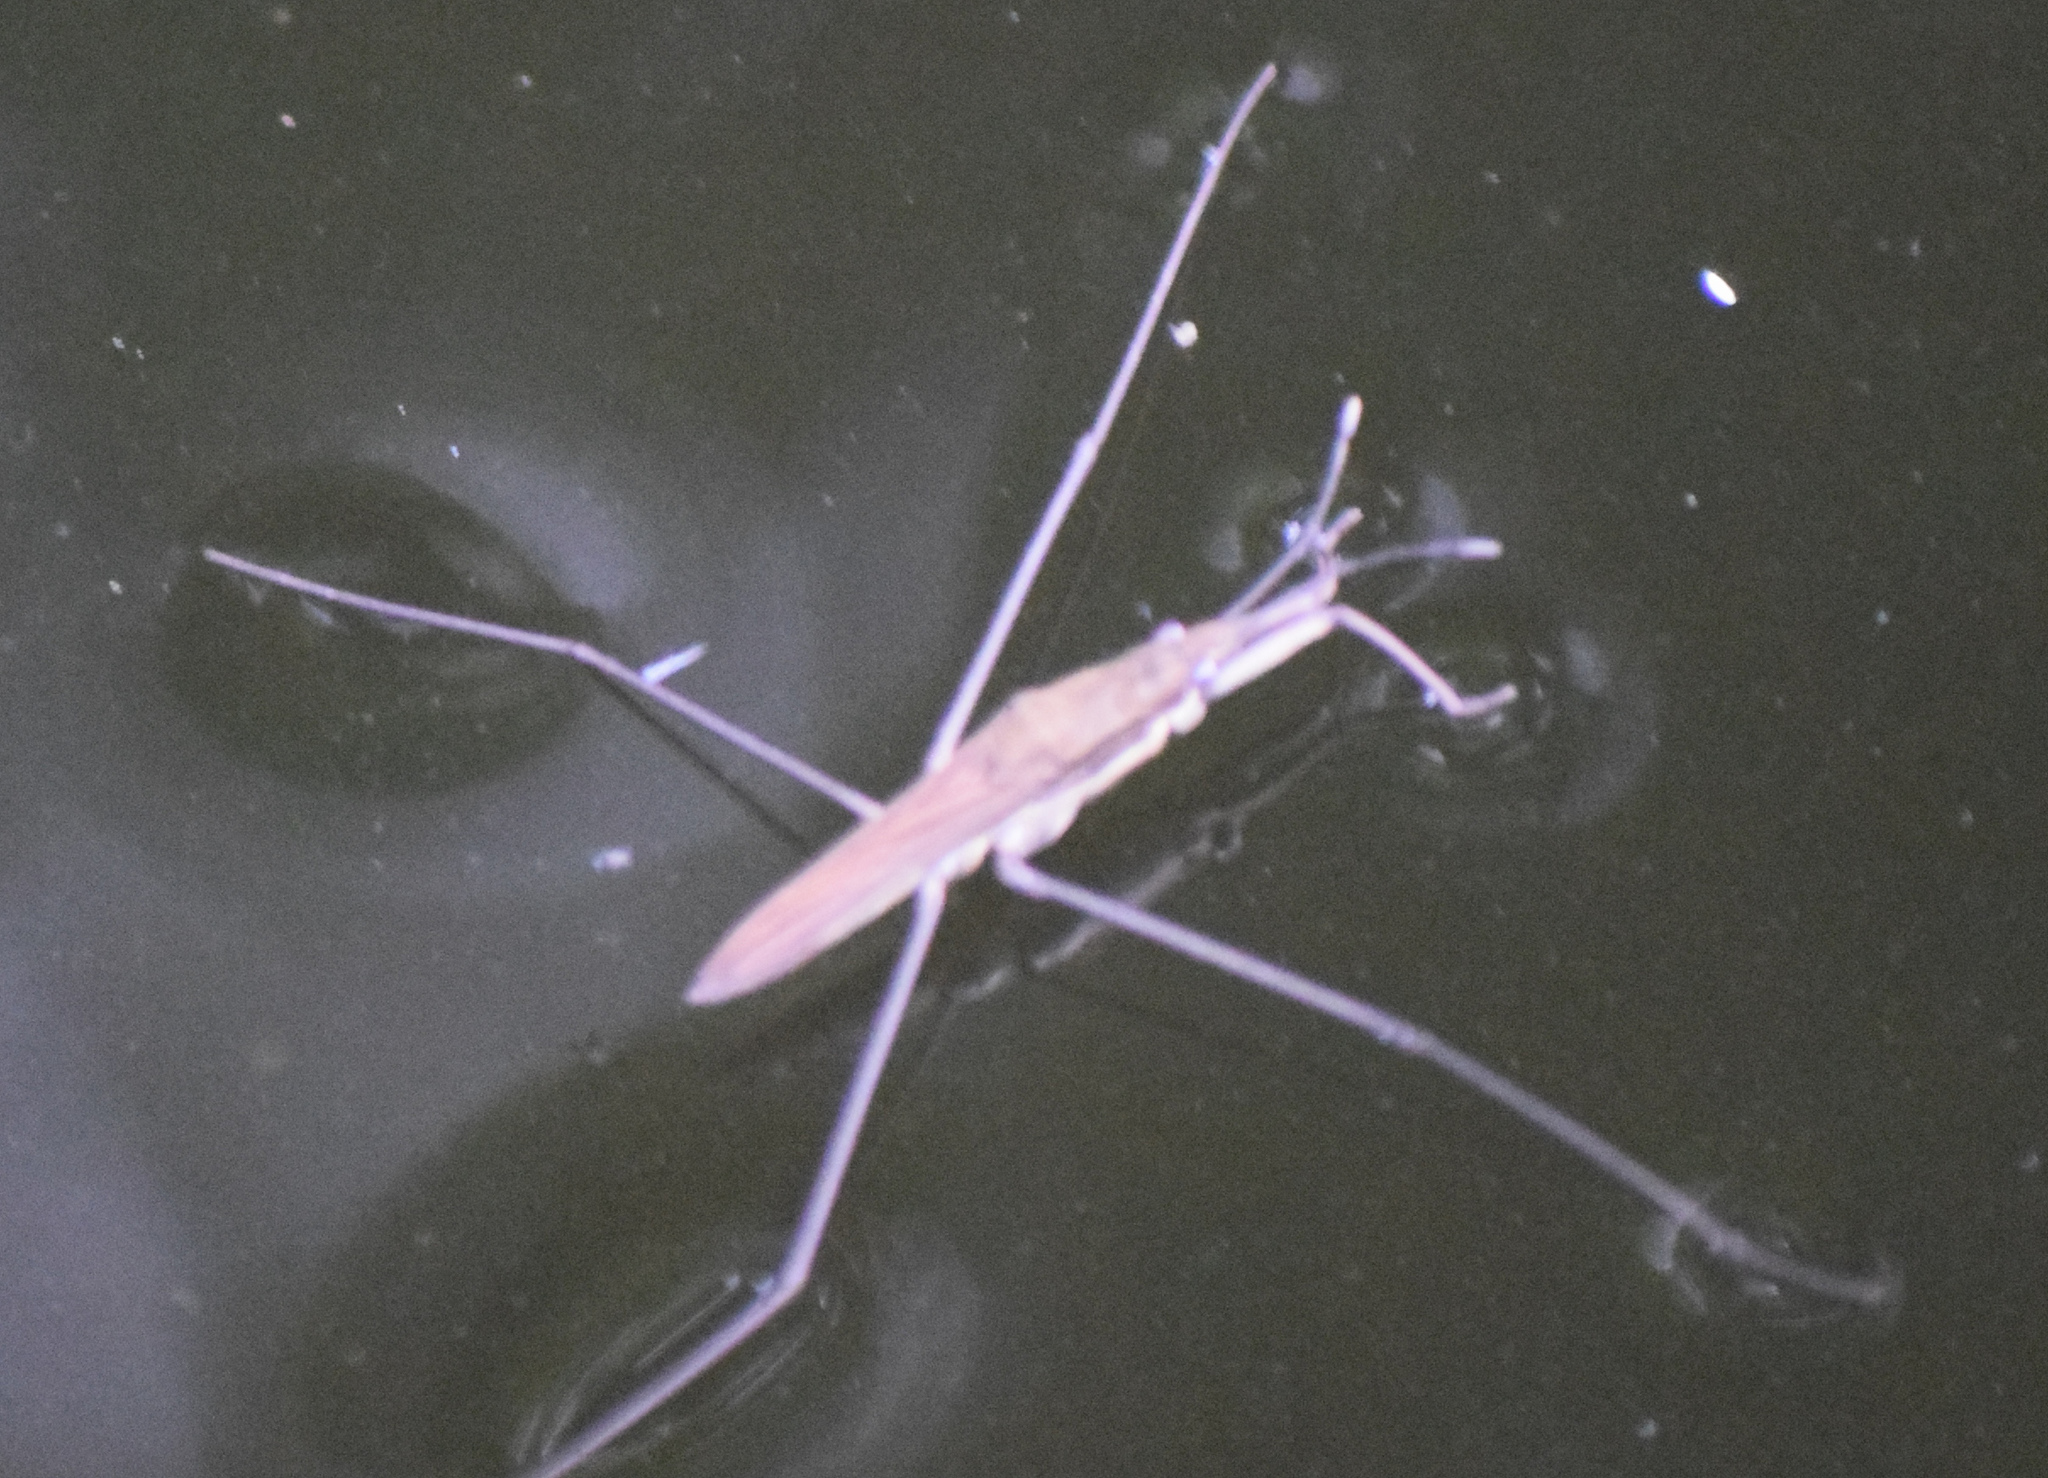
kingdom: Animalia
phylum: Arthropoda
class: Insecta
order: Hemiptera
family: Gerridae
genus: Limnoporus
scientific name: Limnoporus rufoscutellatus
